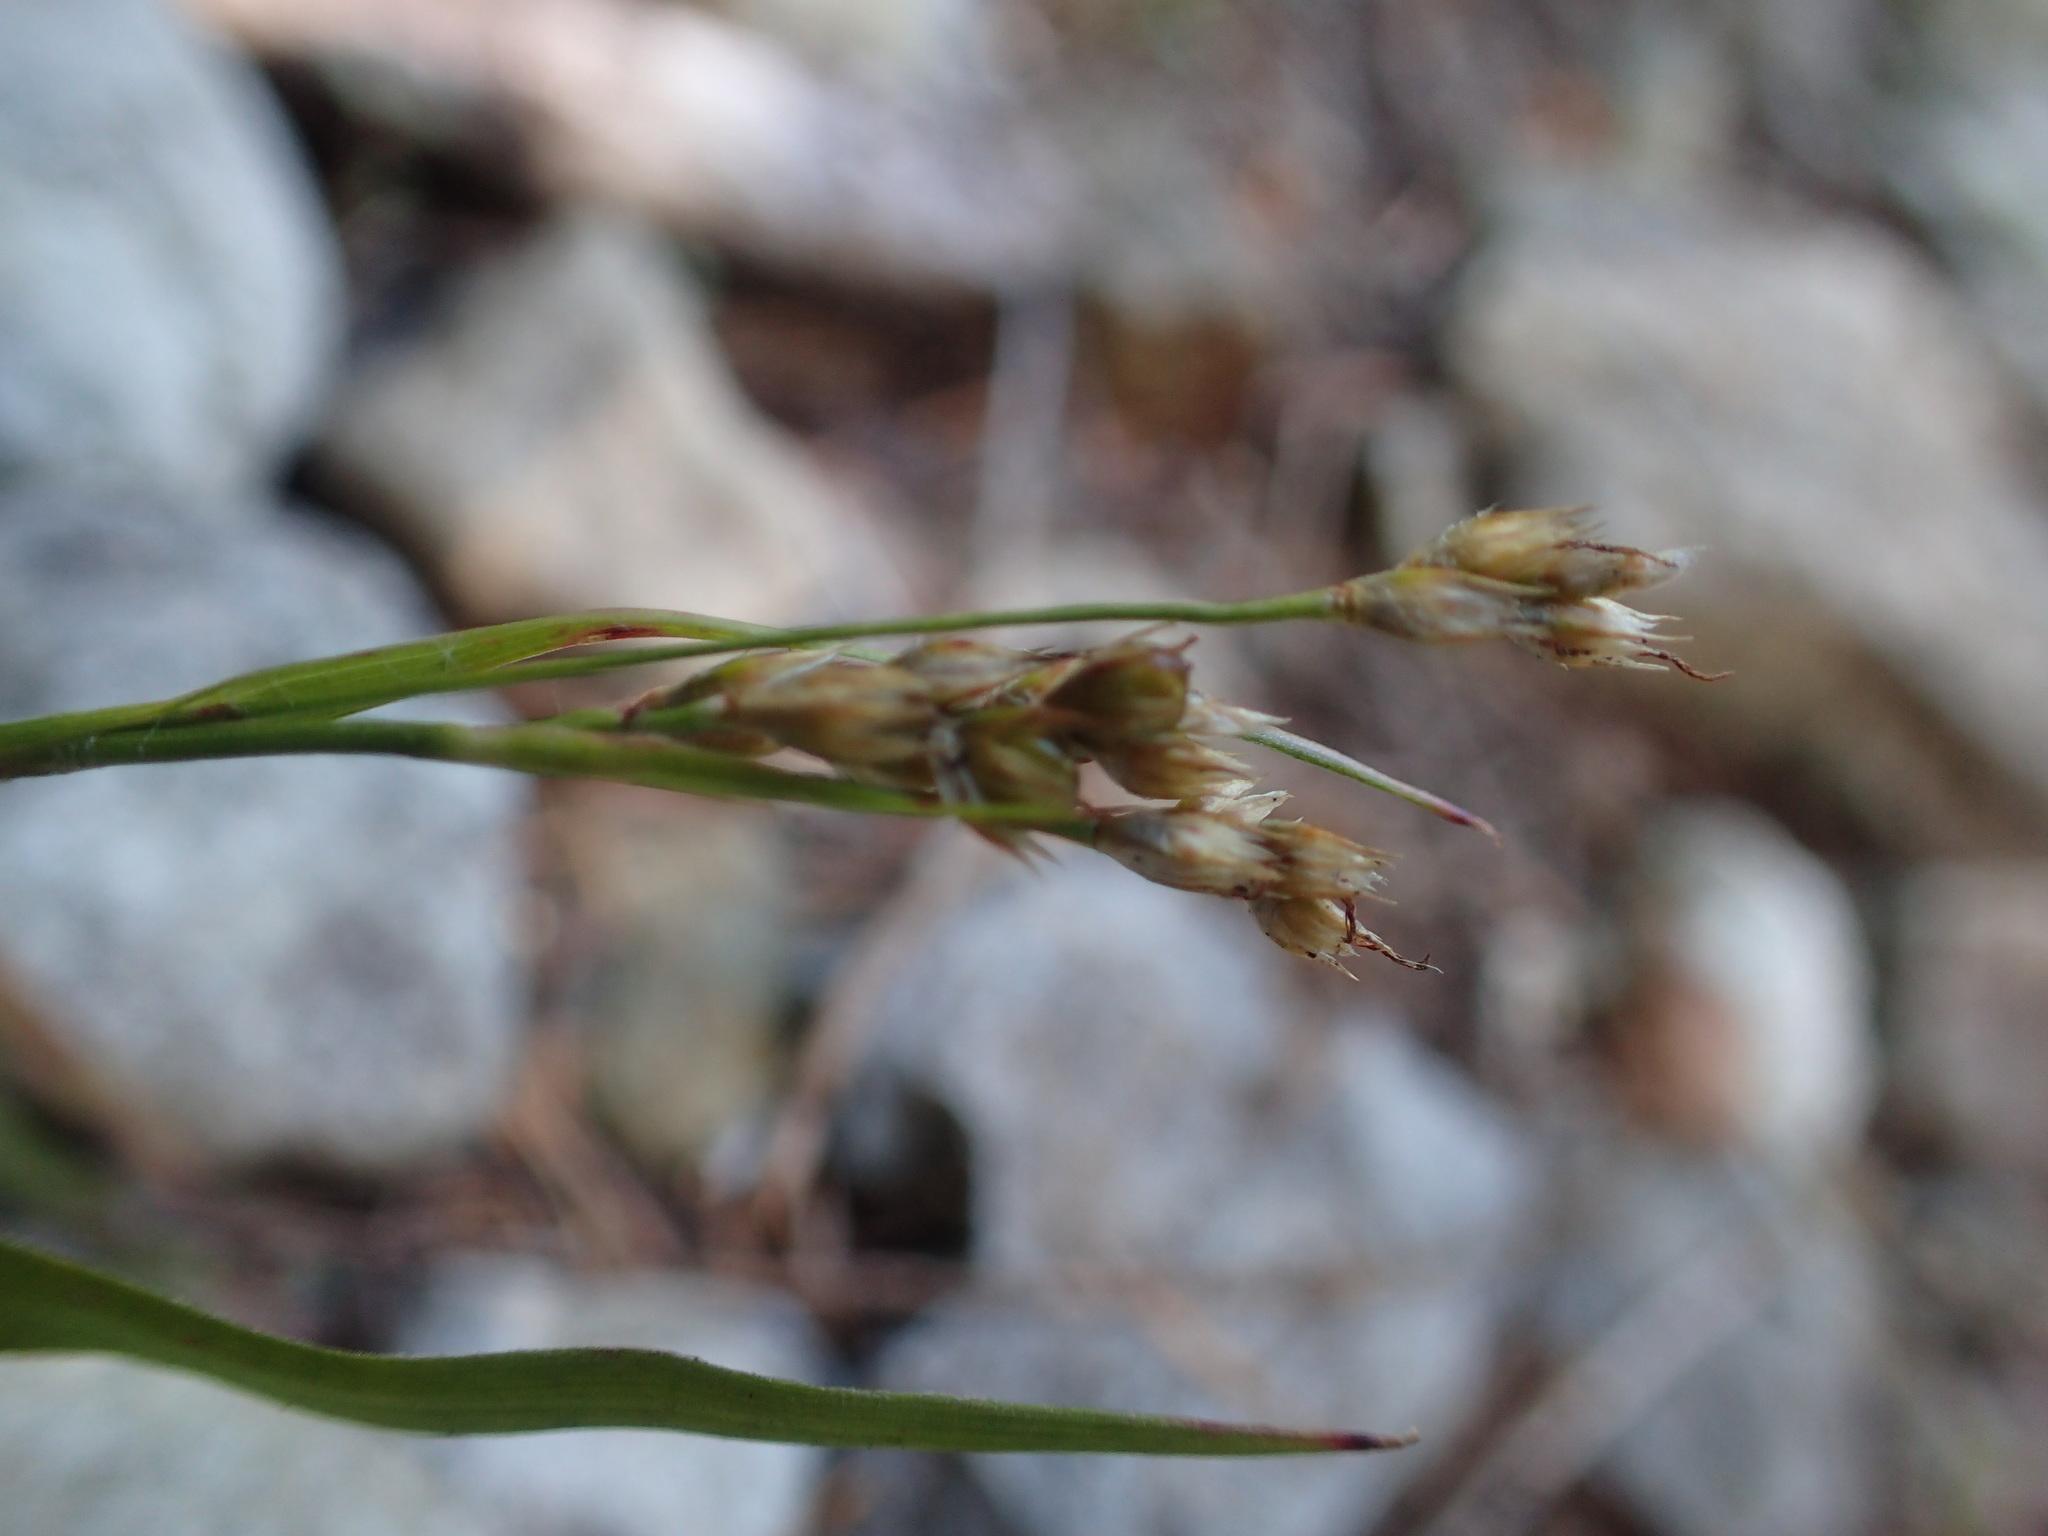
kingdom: Plantae
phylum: Tracheophyta
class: Liliopsida
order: Poales
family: Juncaceae
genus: Luzula
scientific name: Luzula comosa
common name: Pacific woodrush
